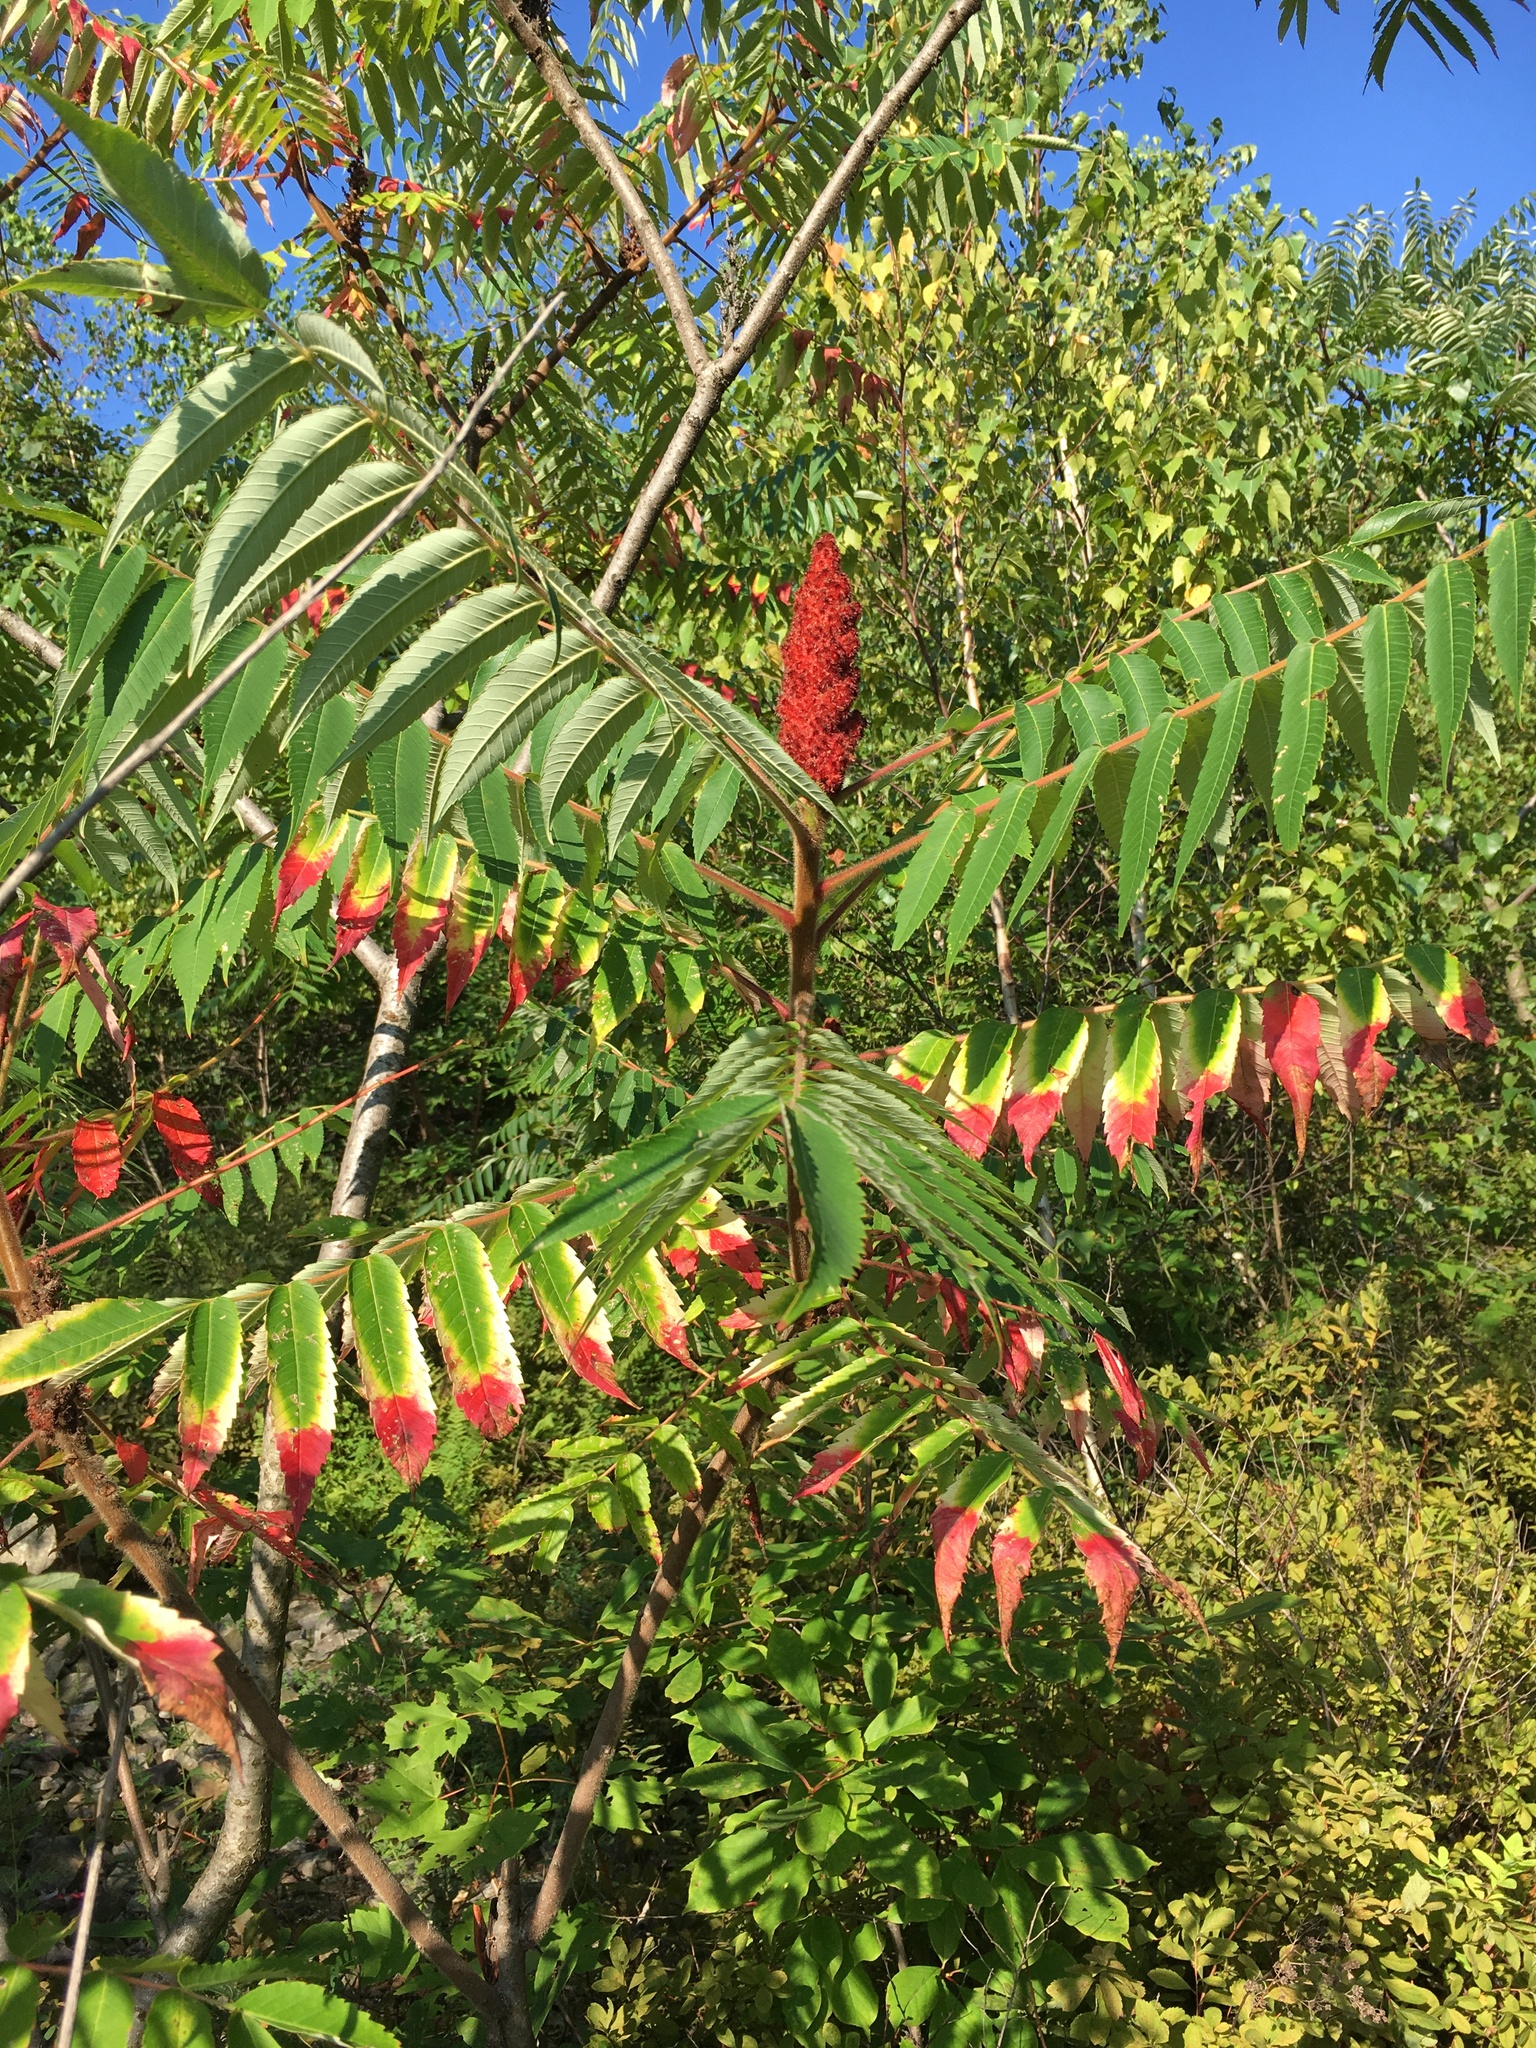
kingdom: Plantae
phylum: Tracheophyta
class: Magnoliopsida
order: Sapindales
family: Anacardiaceae
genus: Rhus
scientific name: Rhus typhina
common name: Staghorn sumac
